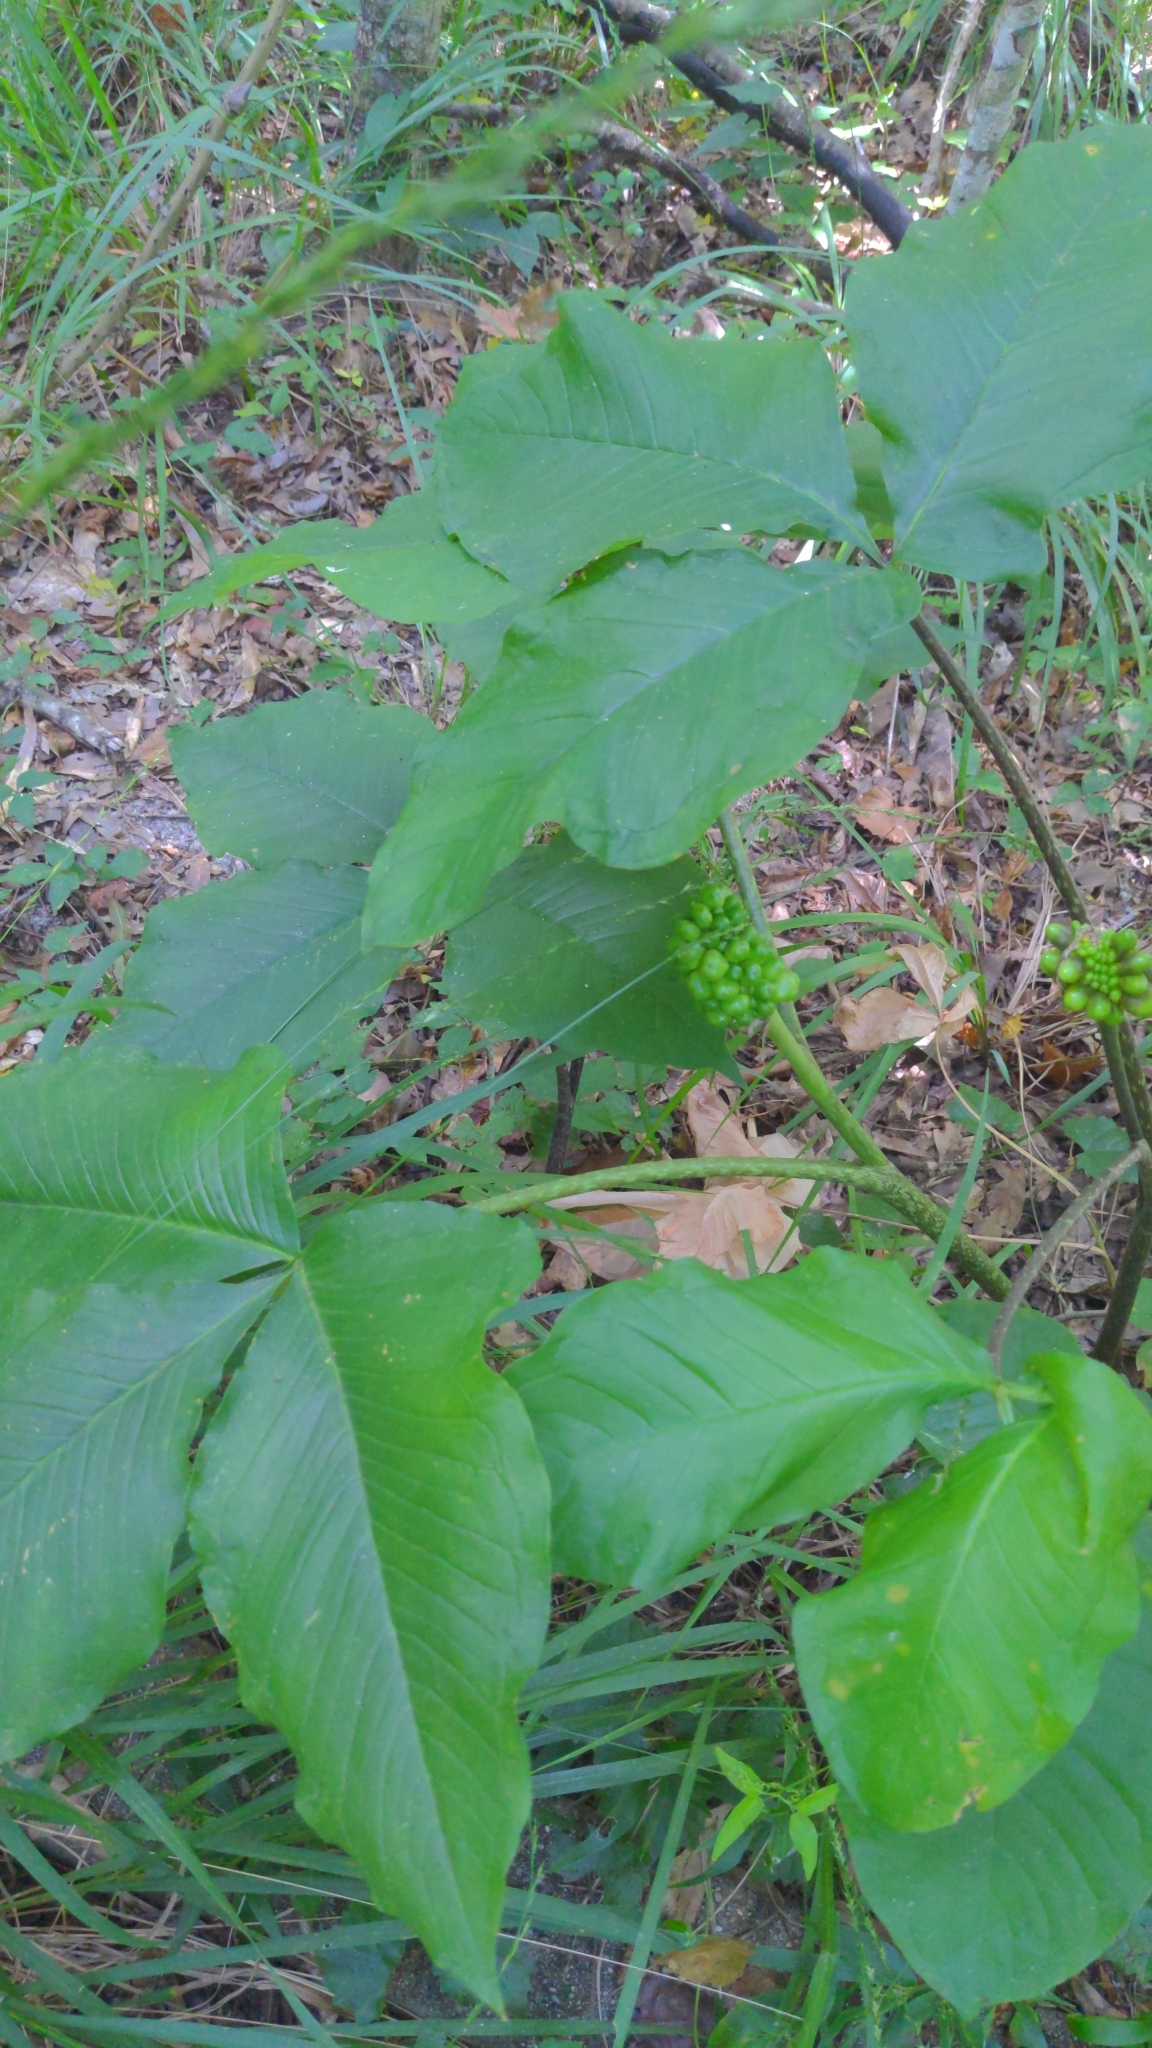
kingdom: Plantae
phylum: Tracheophyta
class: Liliopsida
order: Alismatales
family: Araceae
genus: Arisaema
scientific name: Arisaema triphyllum
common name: Jack-in-the-pulpit
